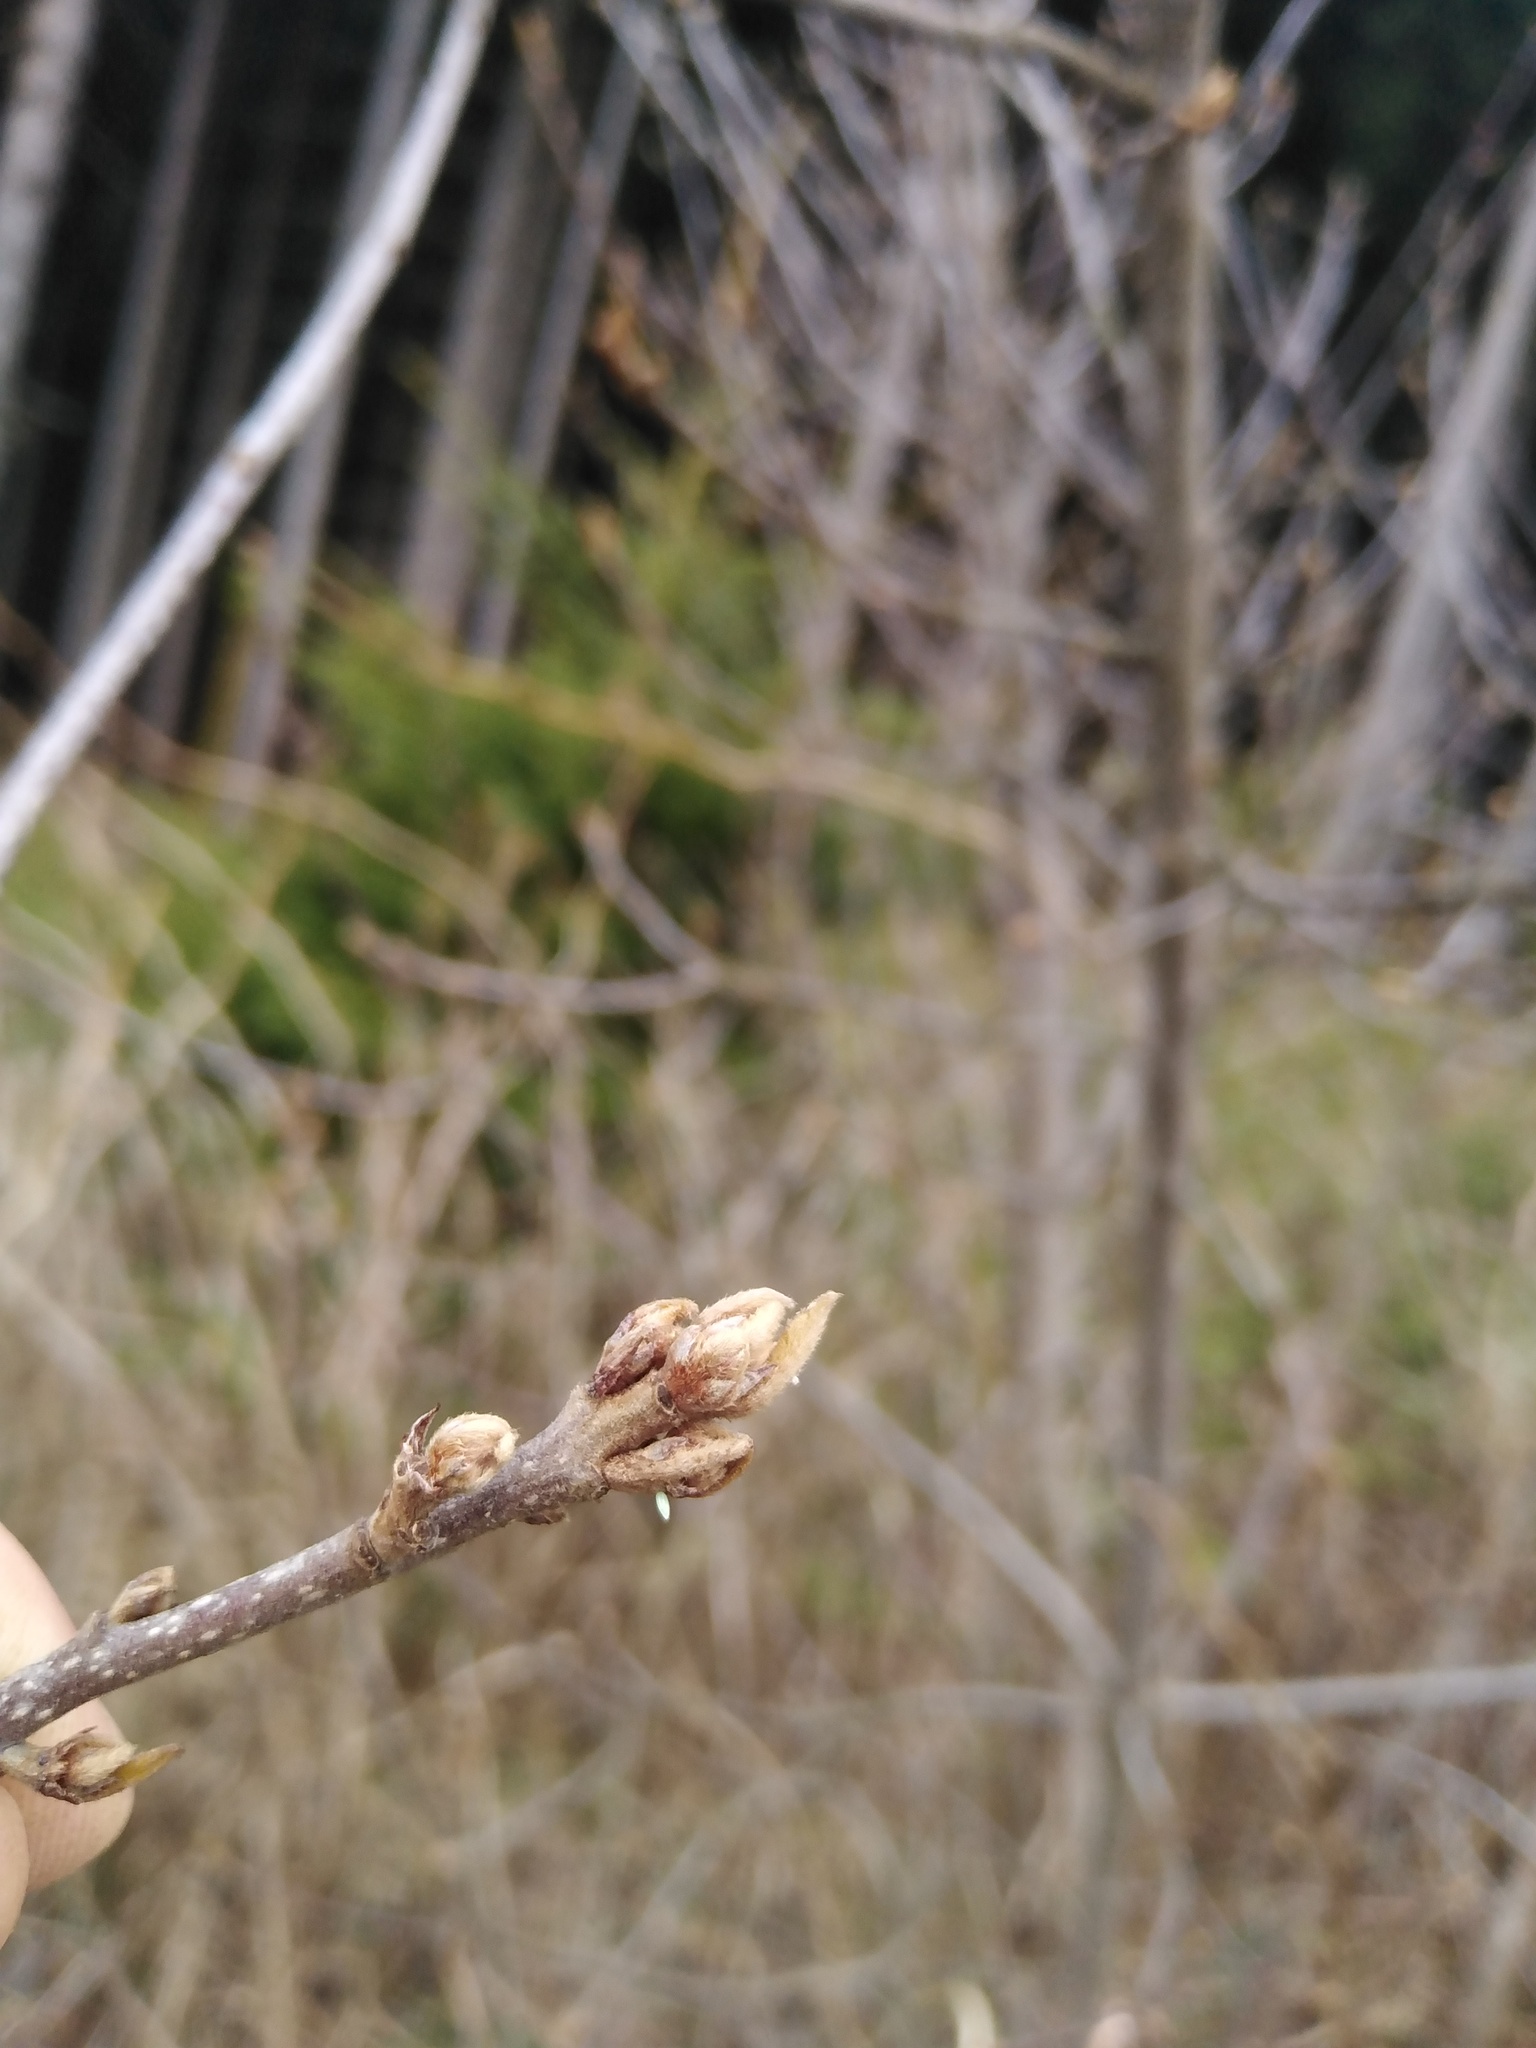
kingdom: Animalia
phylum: Arthropoda
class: Insecta
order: Lepidoptera
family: Pieridae
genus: Gonepteryx
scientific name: Gonepteryx rhamni
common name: Brimstone
